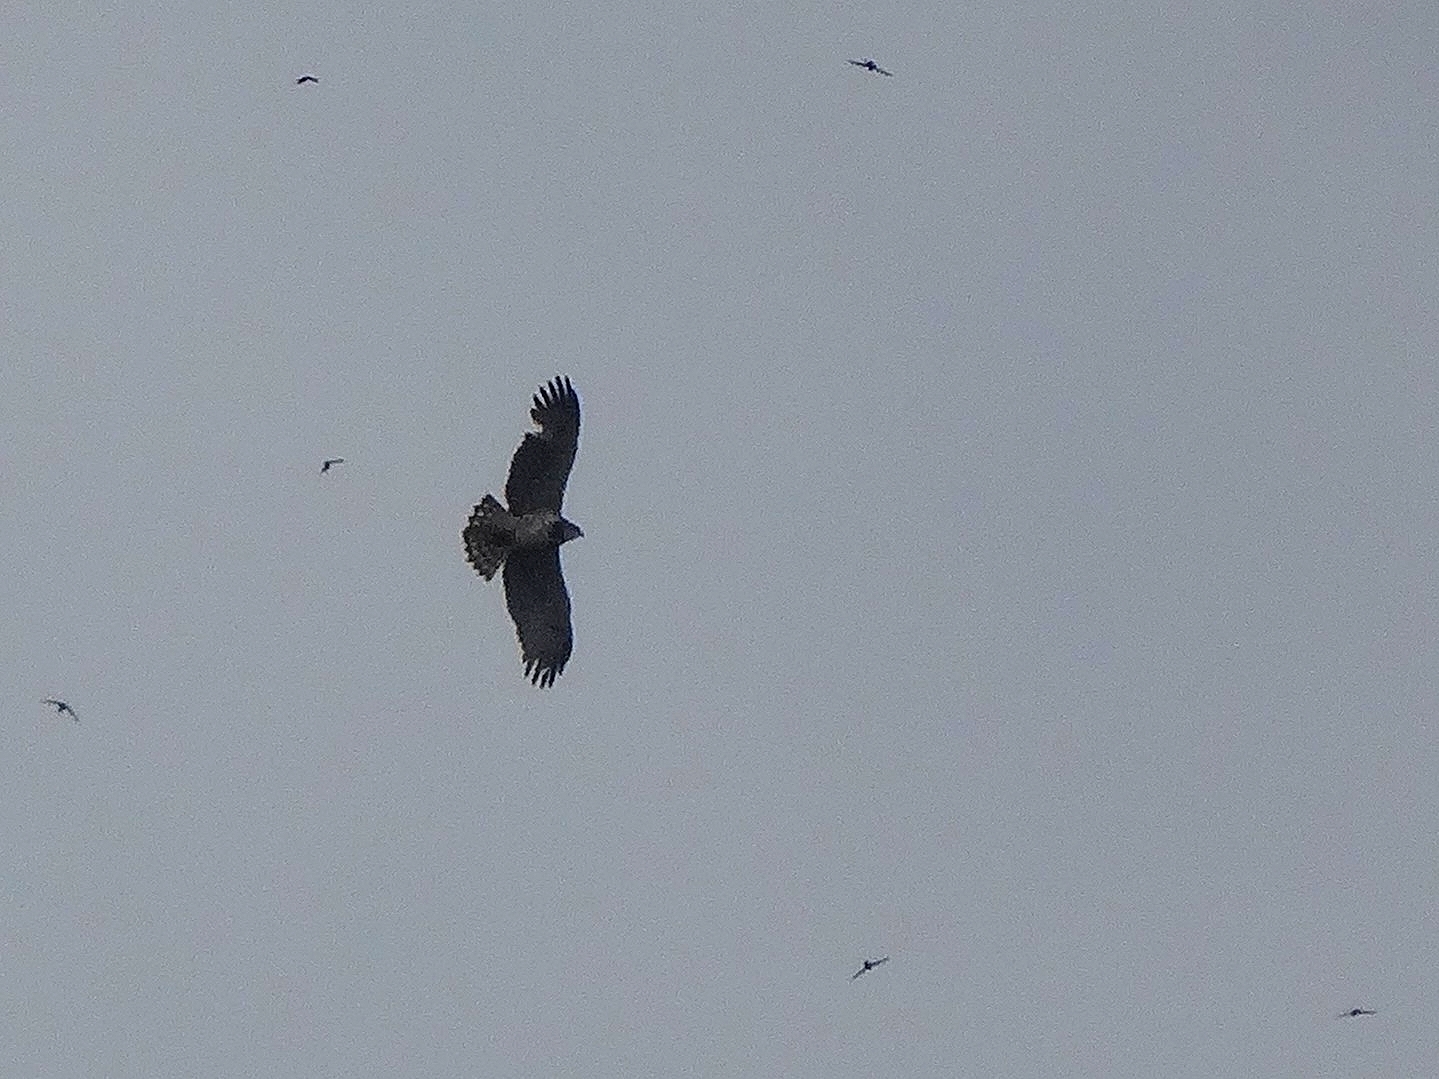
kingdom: Animalia
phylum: Chordata
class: Aves
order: Accipitriformes
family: Accipitridae
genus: Circaetus
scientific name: Circaetus gallicus
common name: Short-toed snake eagle
